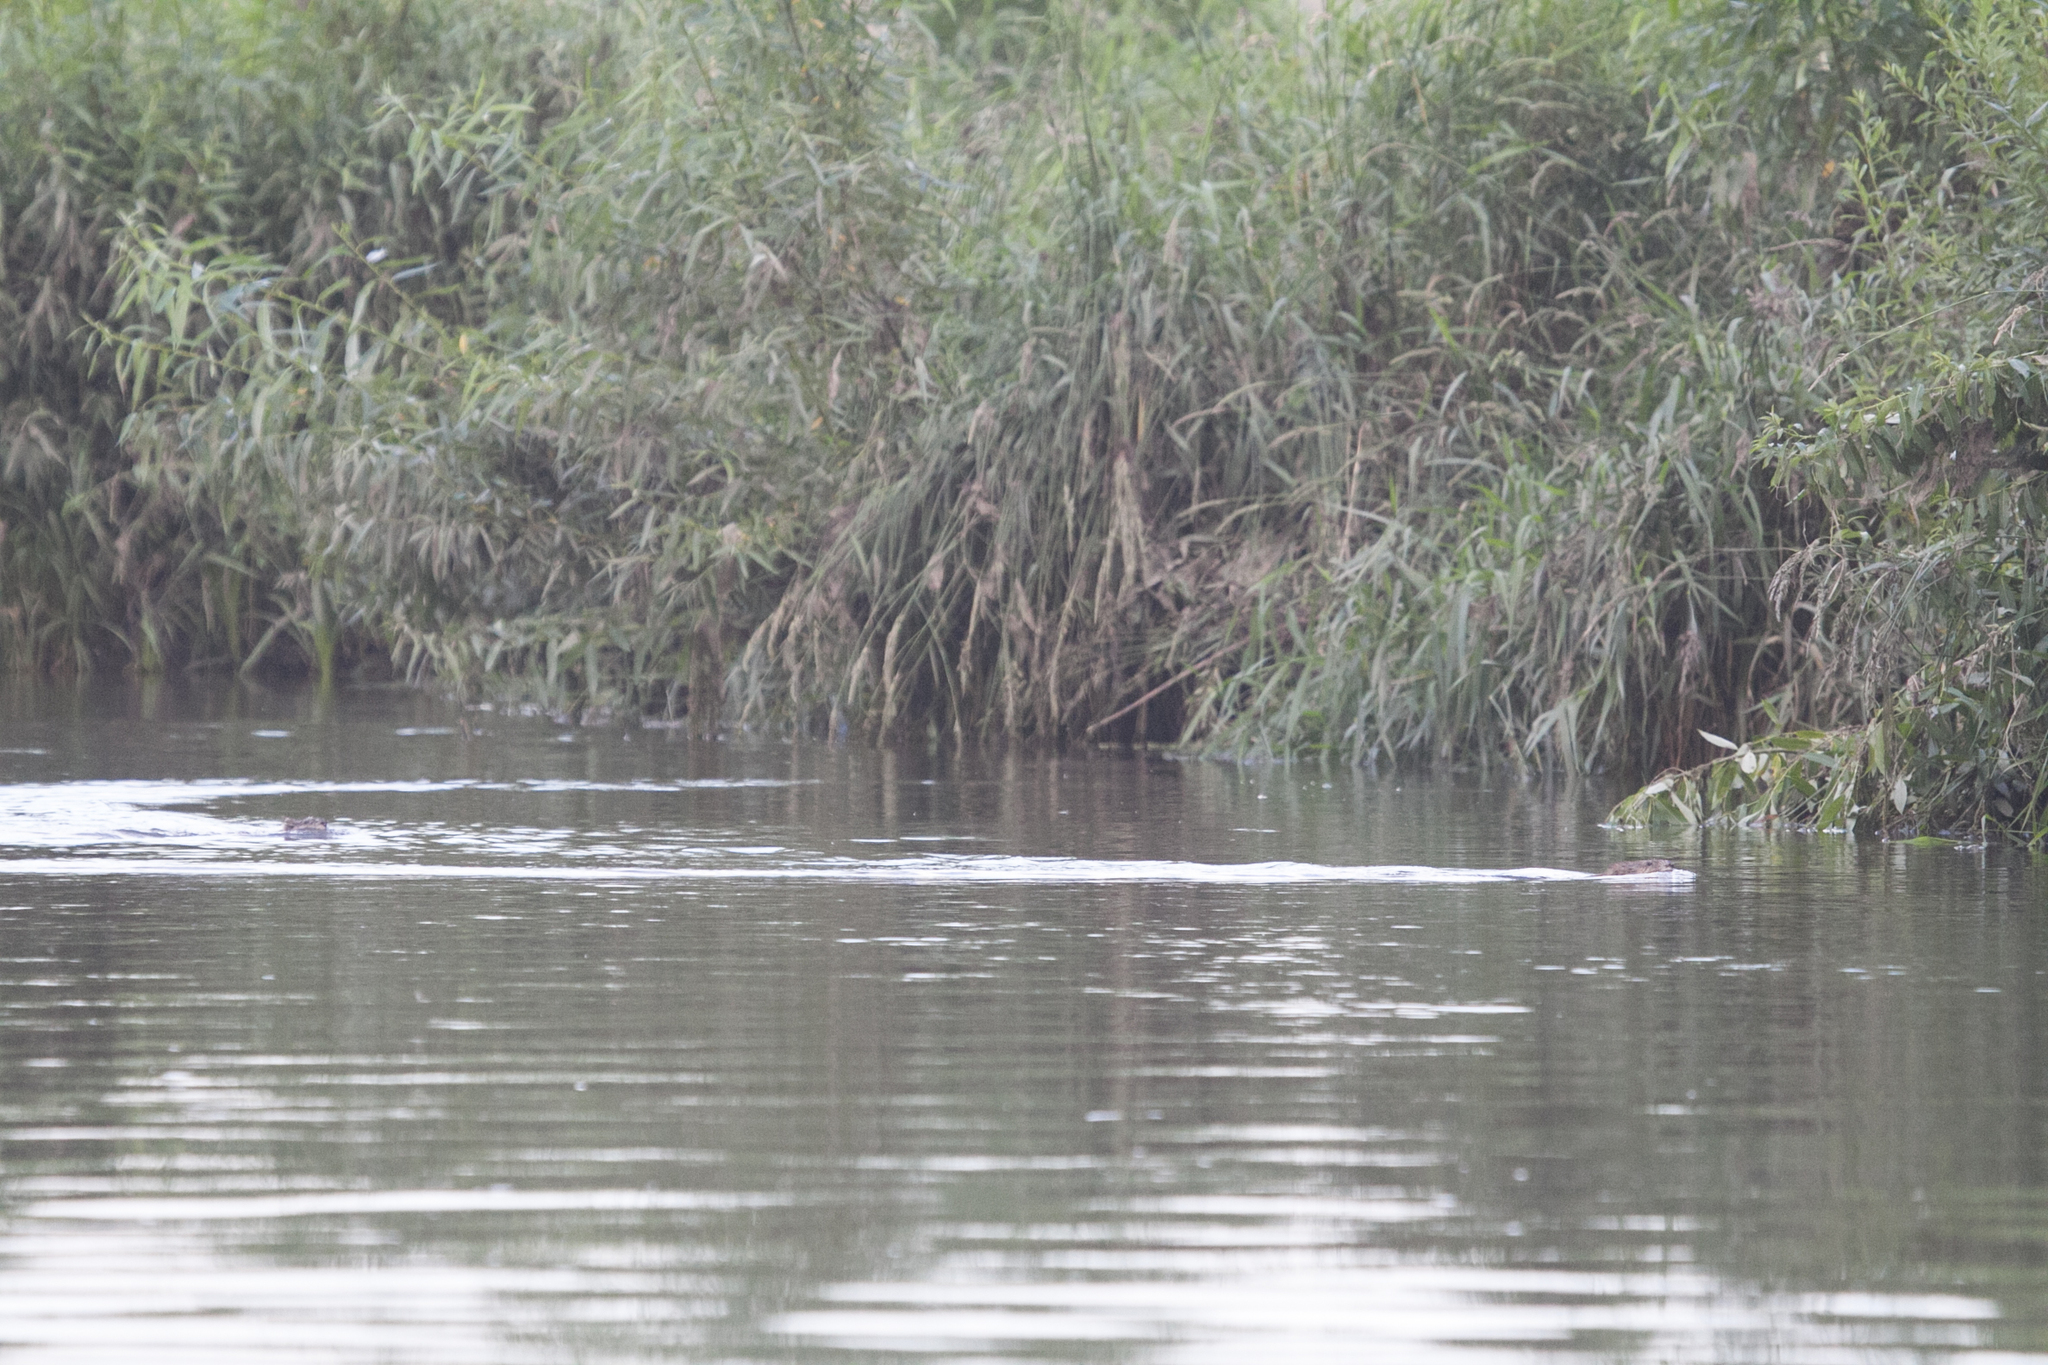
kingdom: Animalia
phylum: Chordata
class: Mammalia
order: Rodentia
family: Cricetidae
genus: Ondatra
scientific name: Ondatra zibethicus
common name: Muskrat
